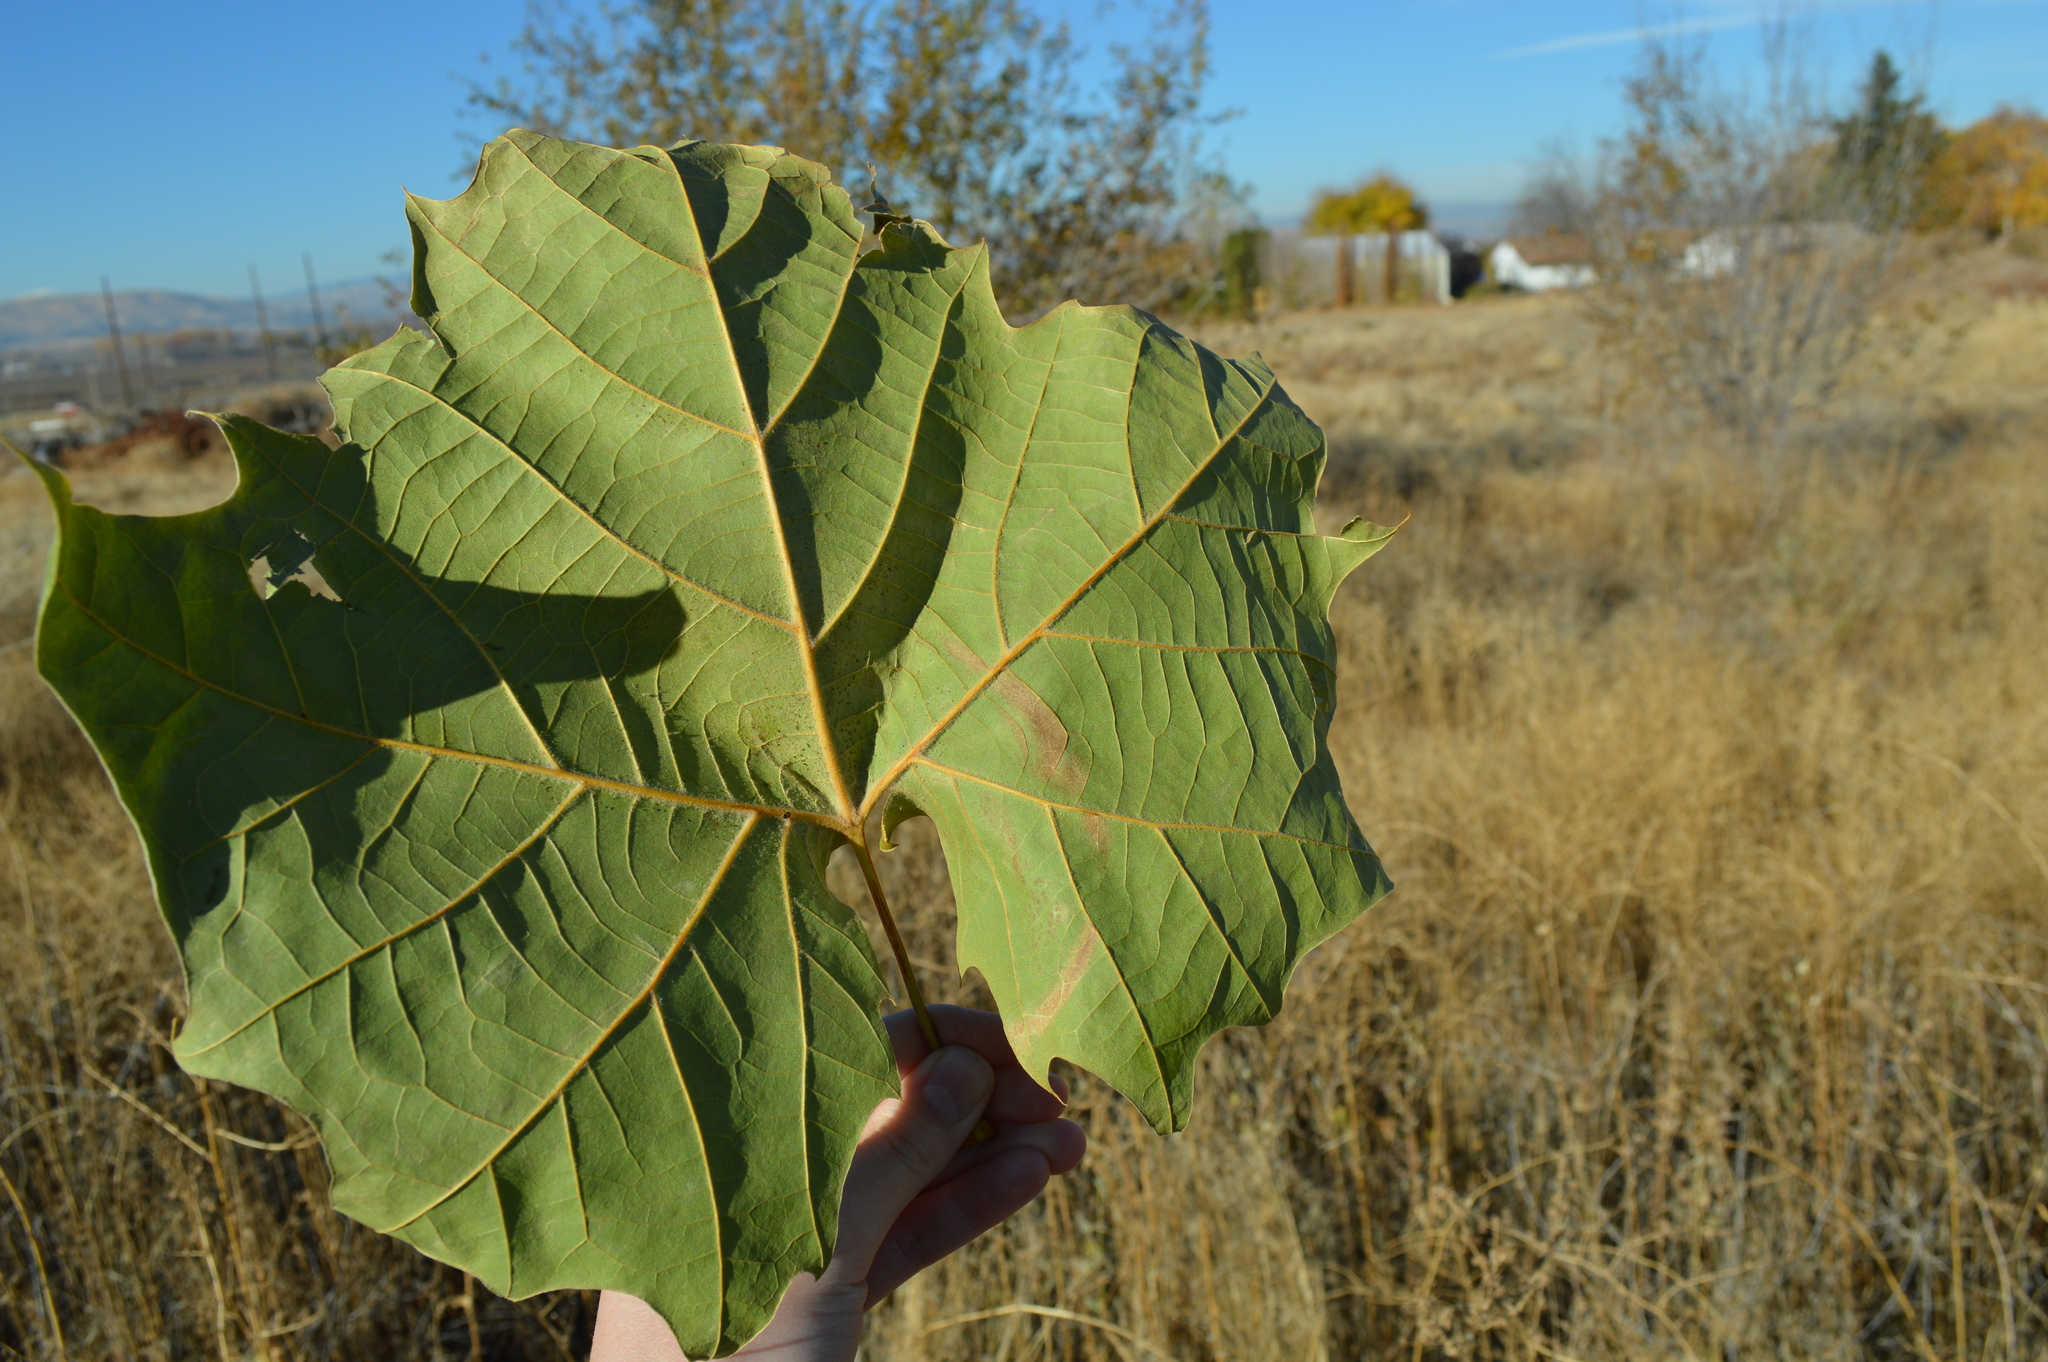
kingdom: Plantae
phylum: Tracheophyta
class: Magnoliopsida
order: Proteales
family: Platanaceae
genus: Platanus
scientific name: Platanus occidentalis
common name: American sycamore
